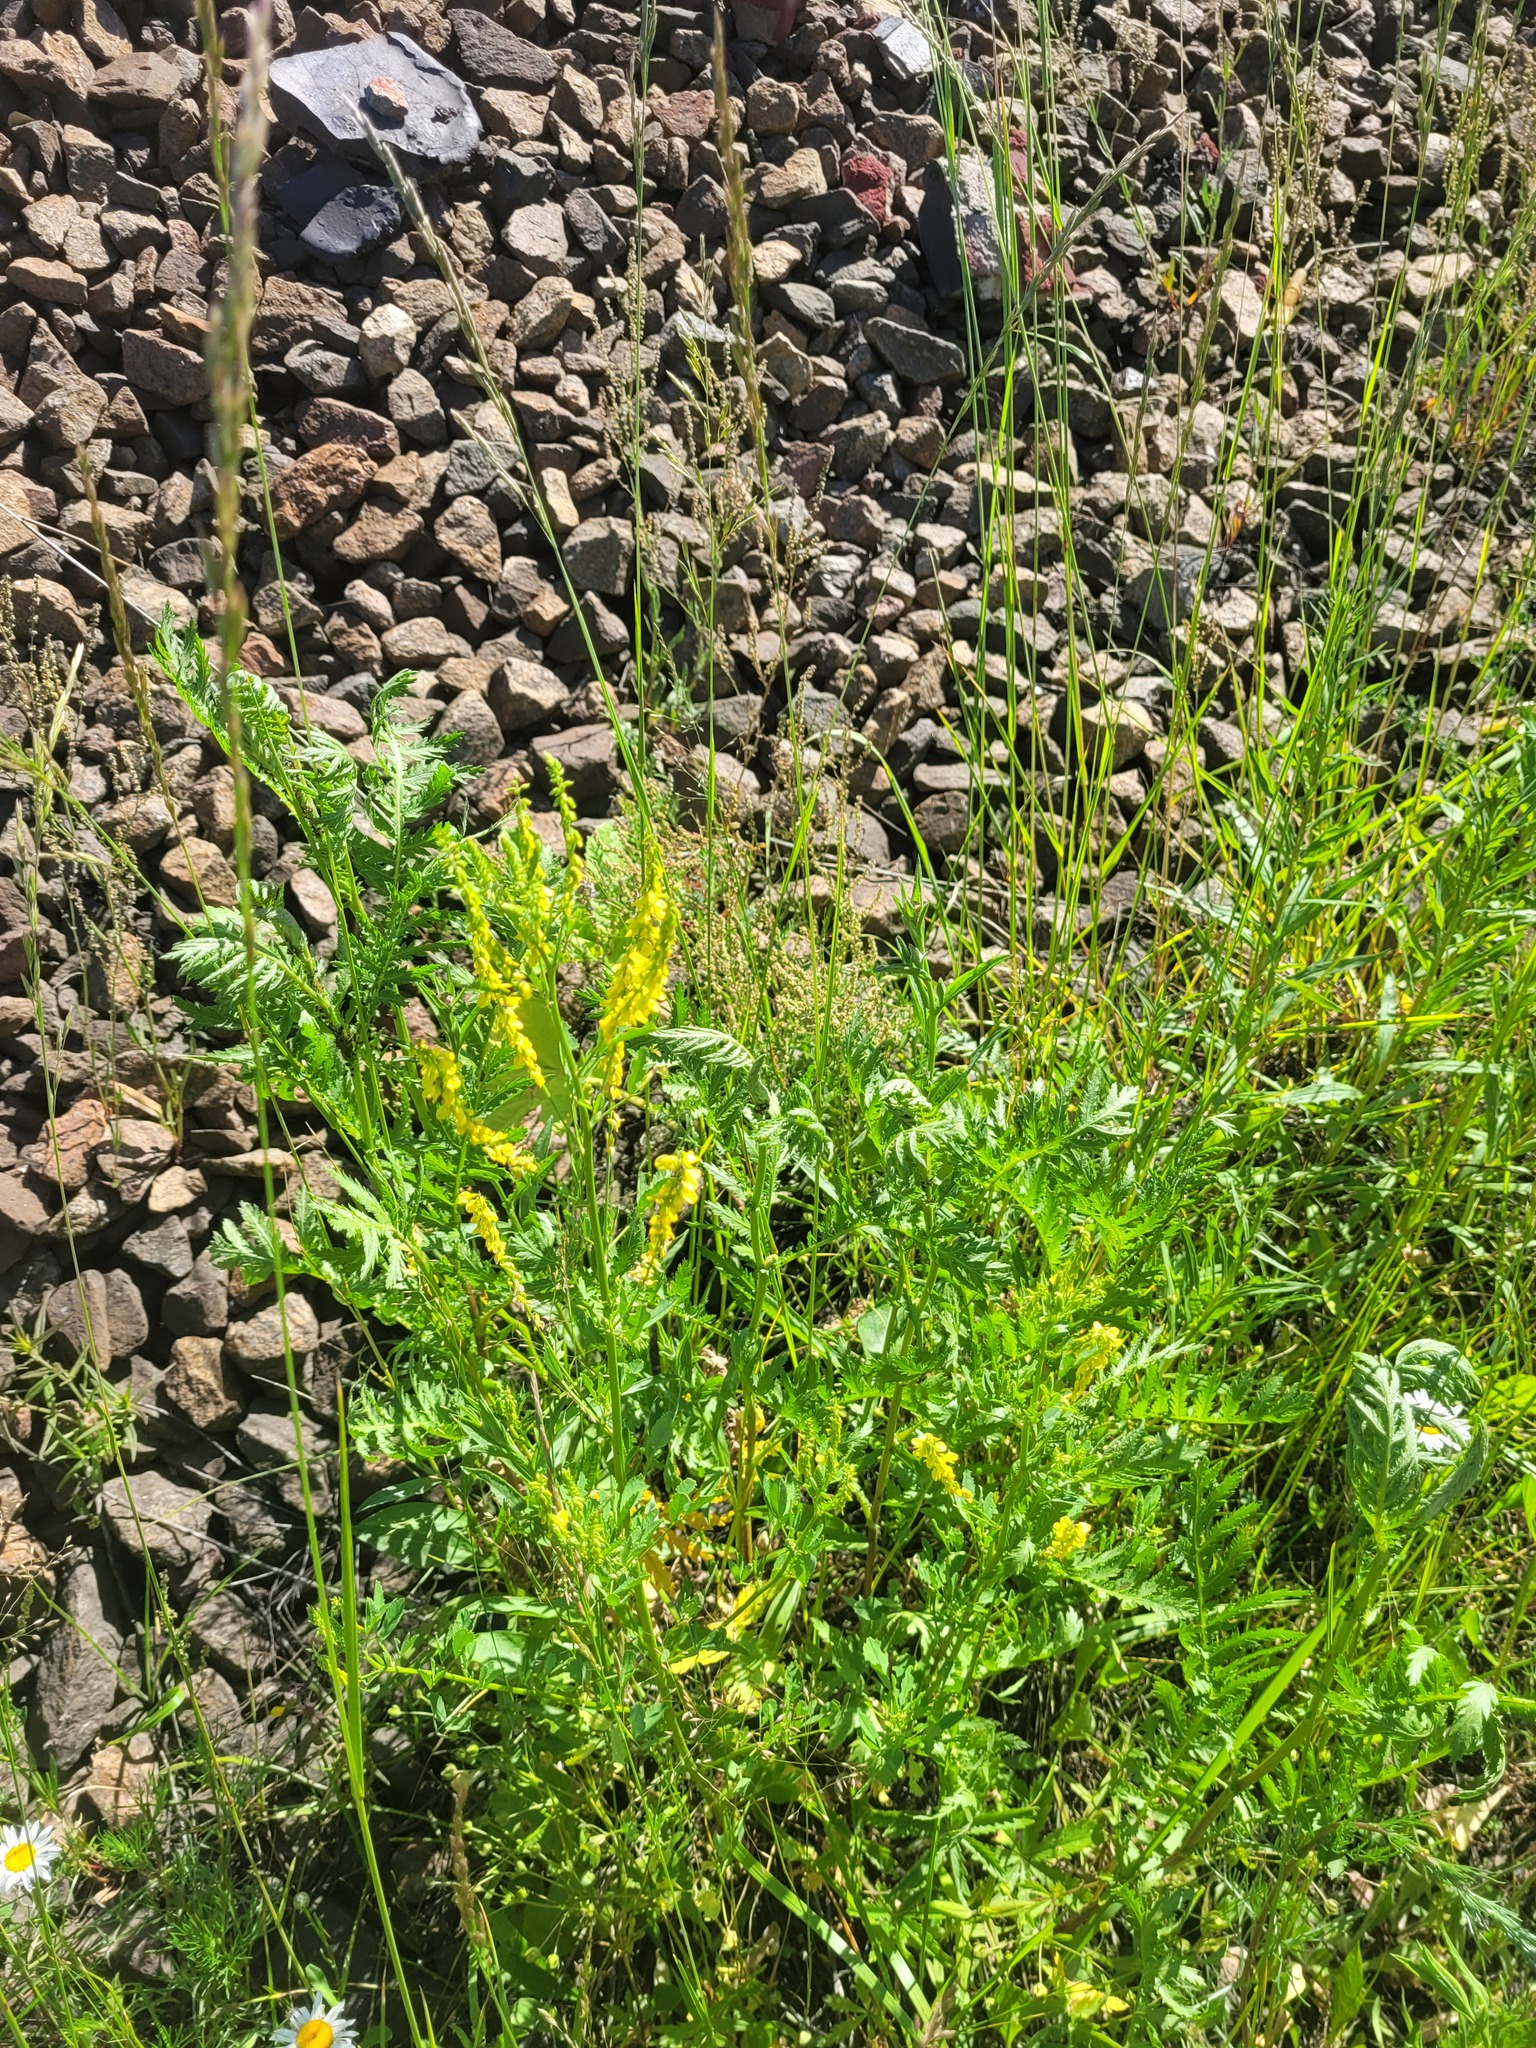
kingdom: Plantae
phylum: Tracheophyta
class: Magnoliopsida
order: Fabales
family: Fabaceae
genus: Melilotus
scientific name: Melilotus officinalis
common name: Sweetclover
